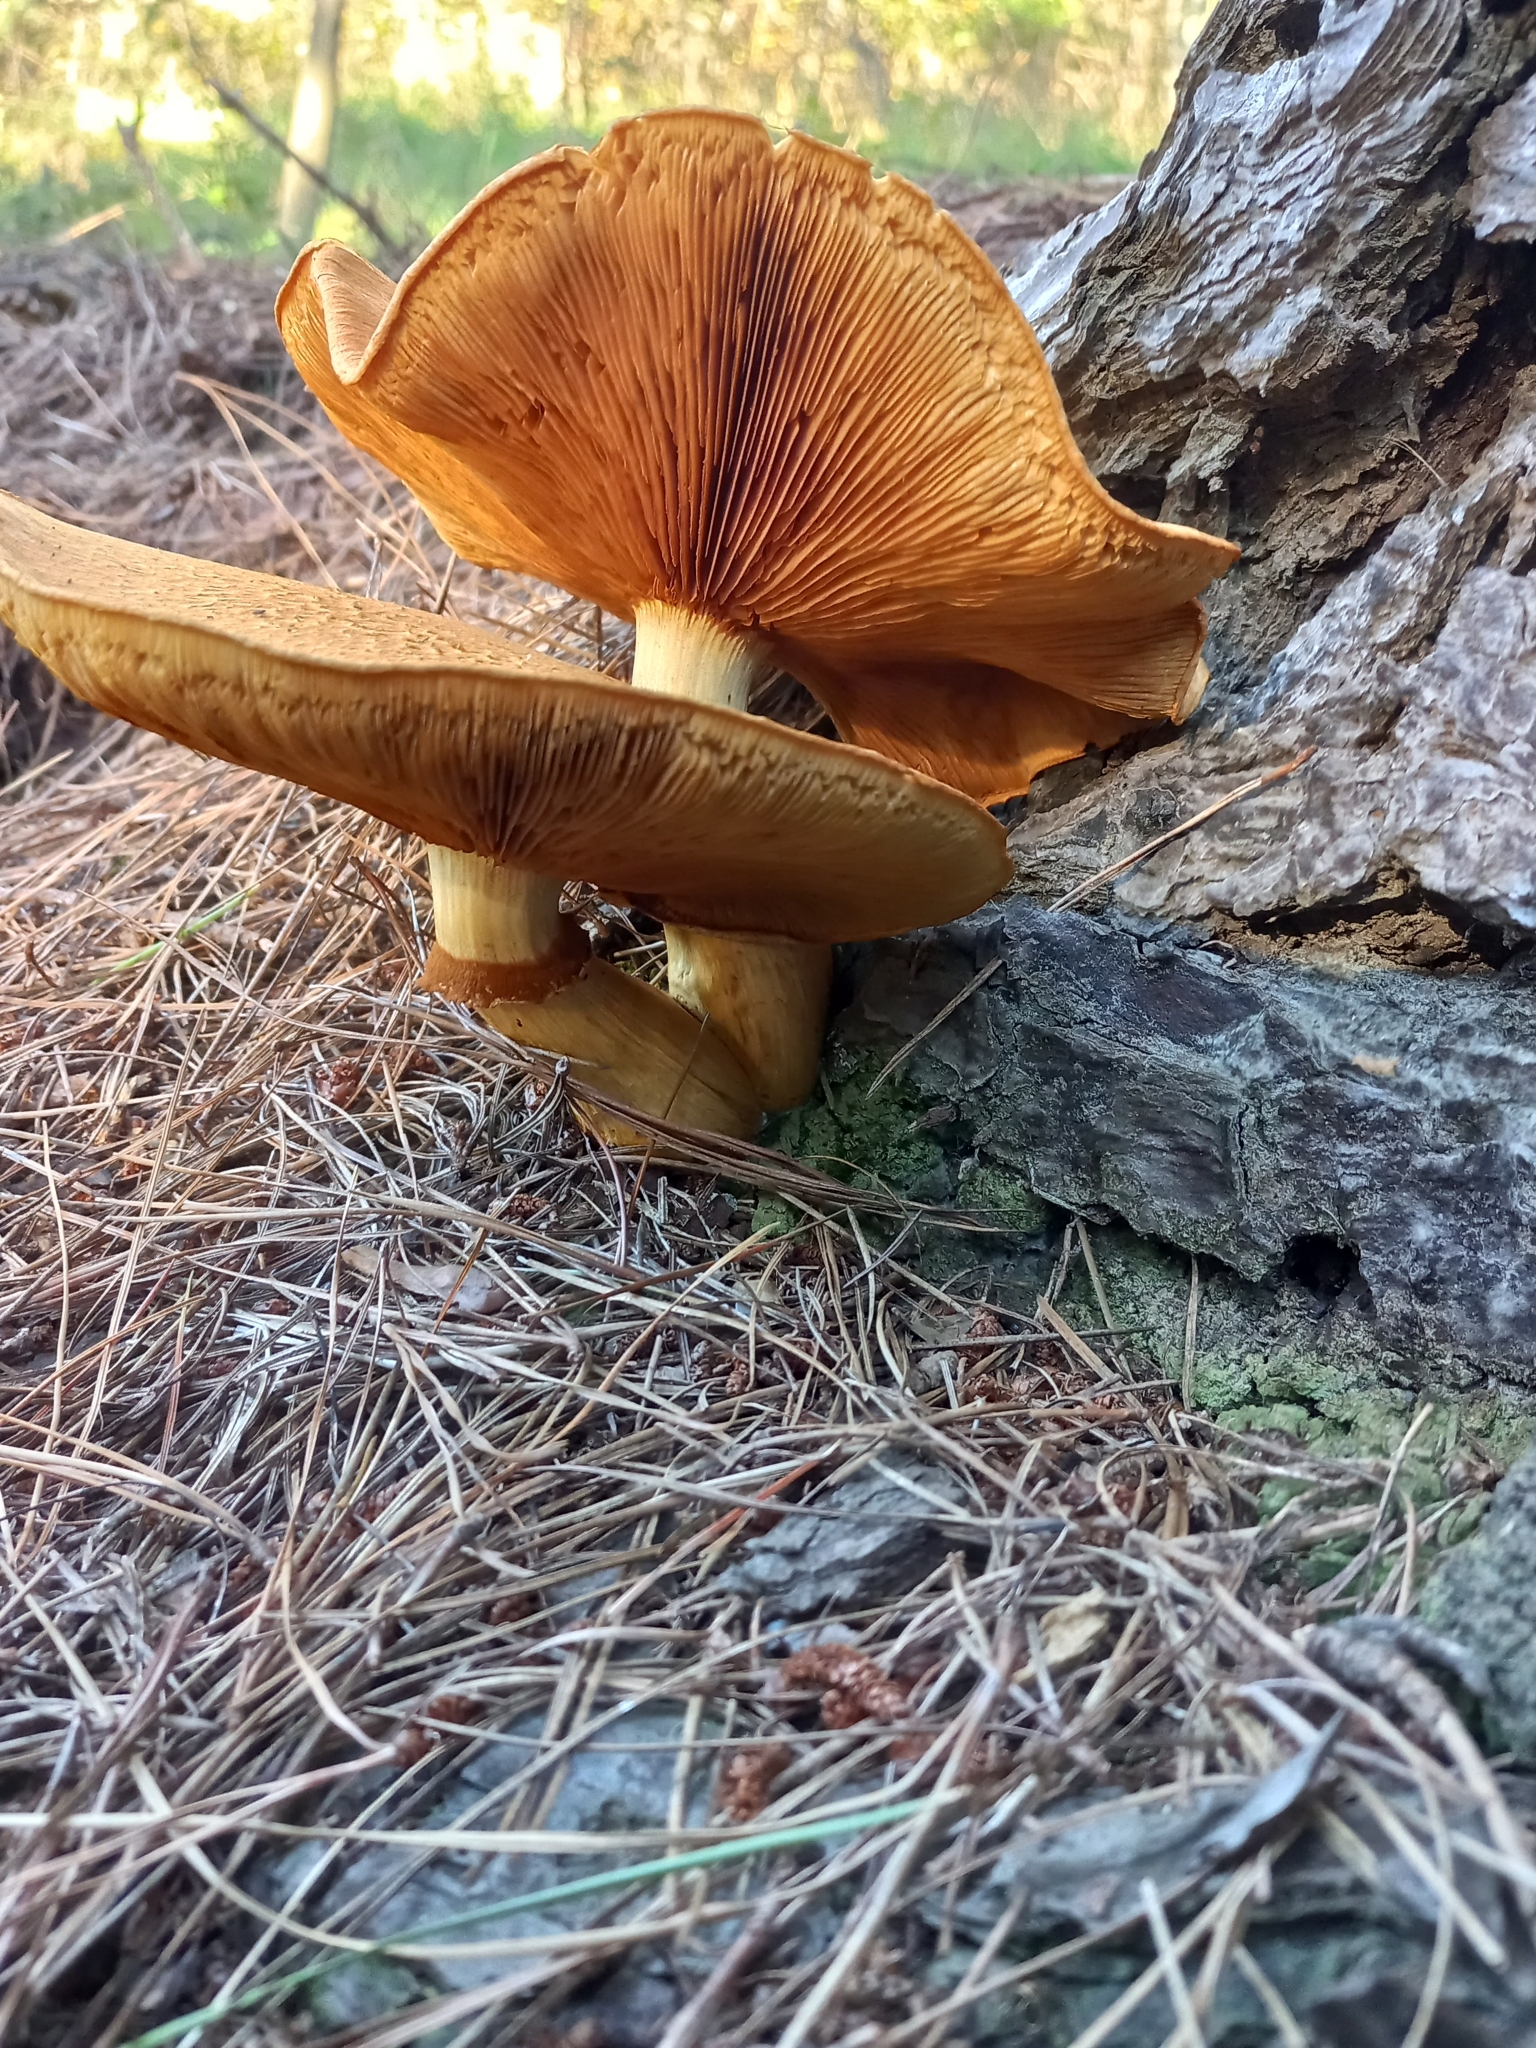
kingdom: Fungi
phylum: Basidiomycota
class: Agaricomycetes
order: Agaricales
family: Hymenogastraceae
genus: Gymnopilus
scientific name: Gymnopilus junonius
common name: Spectacular rustgill
